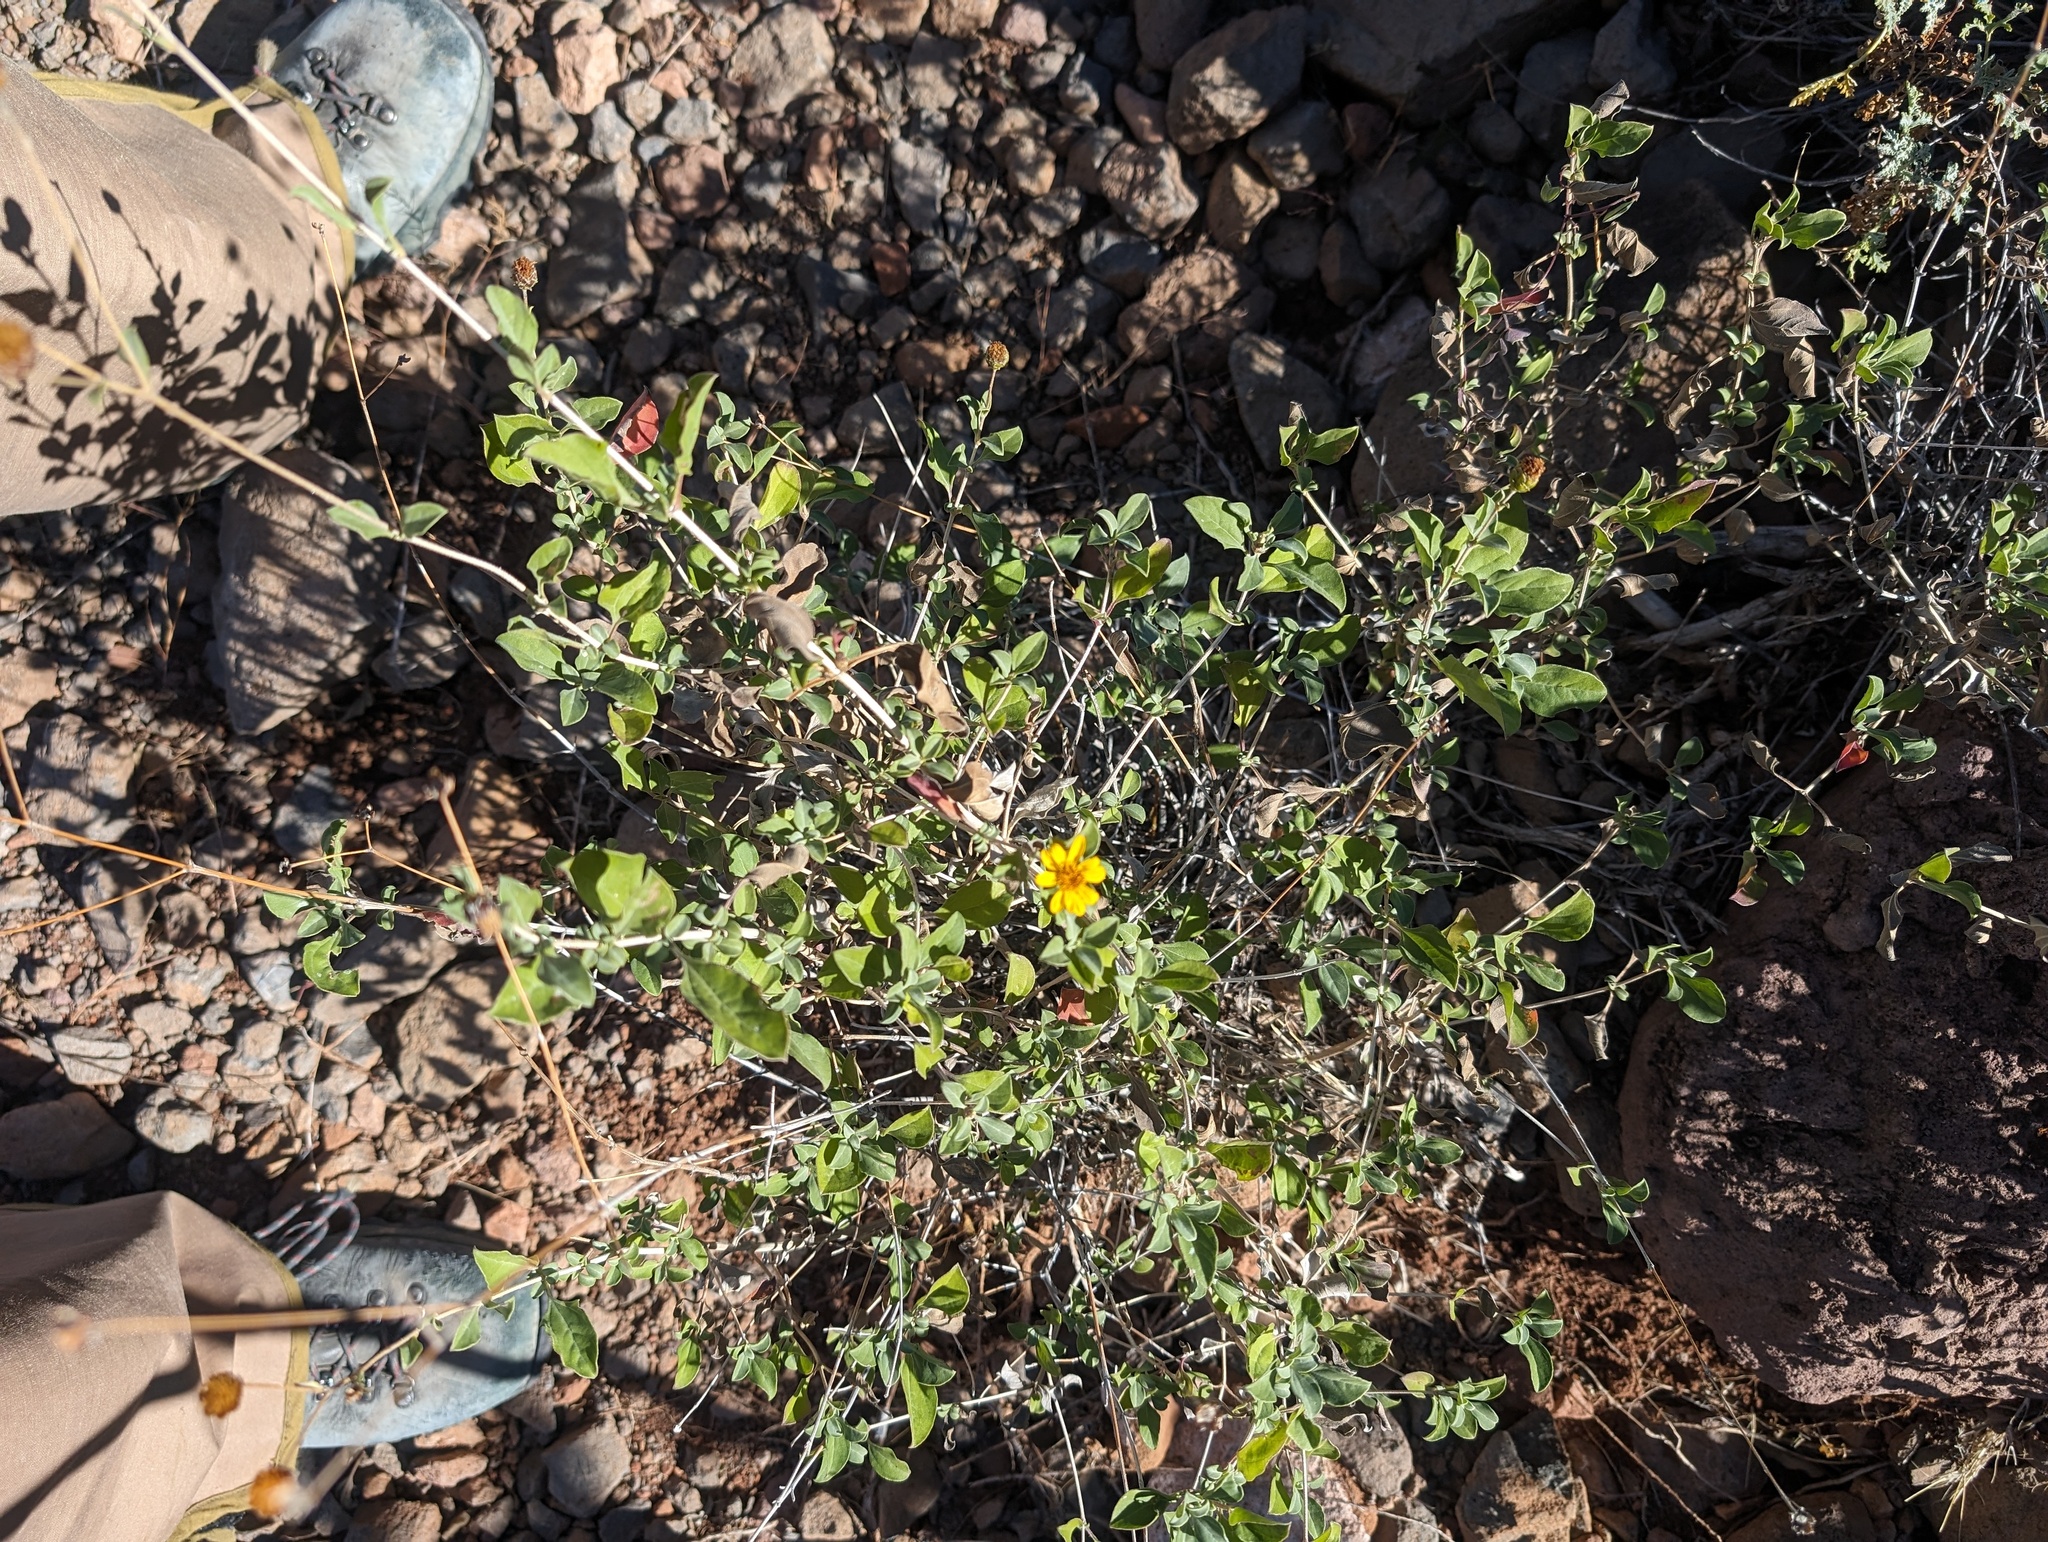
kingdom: Plantae
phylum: Tracheophyta
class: Magnoliopsida
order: Asterales
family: Asteraceae
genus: Aldama
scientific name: Aldama purisimae
